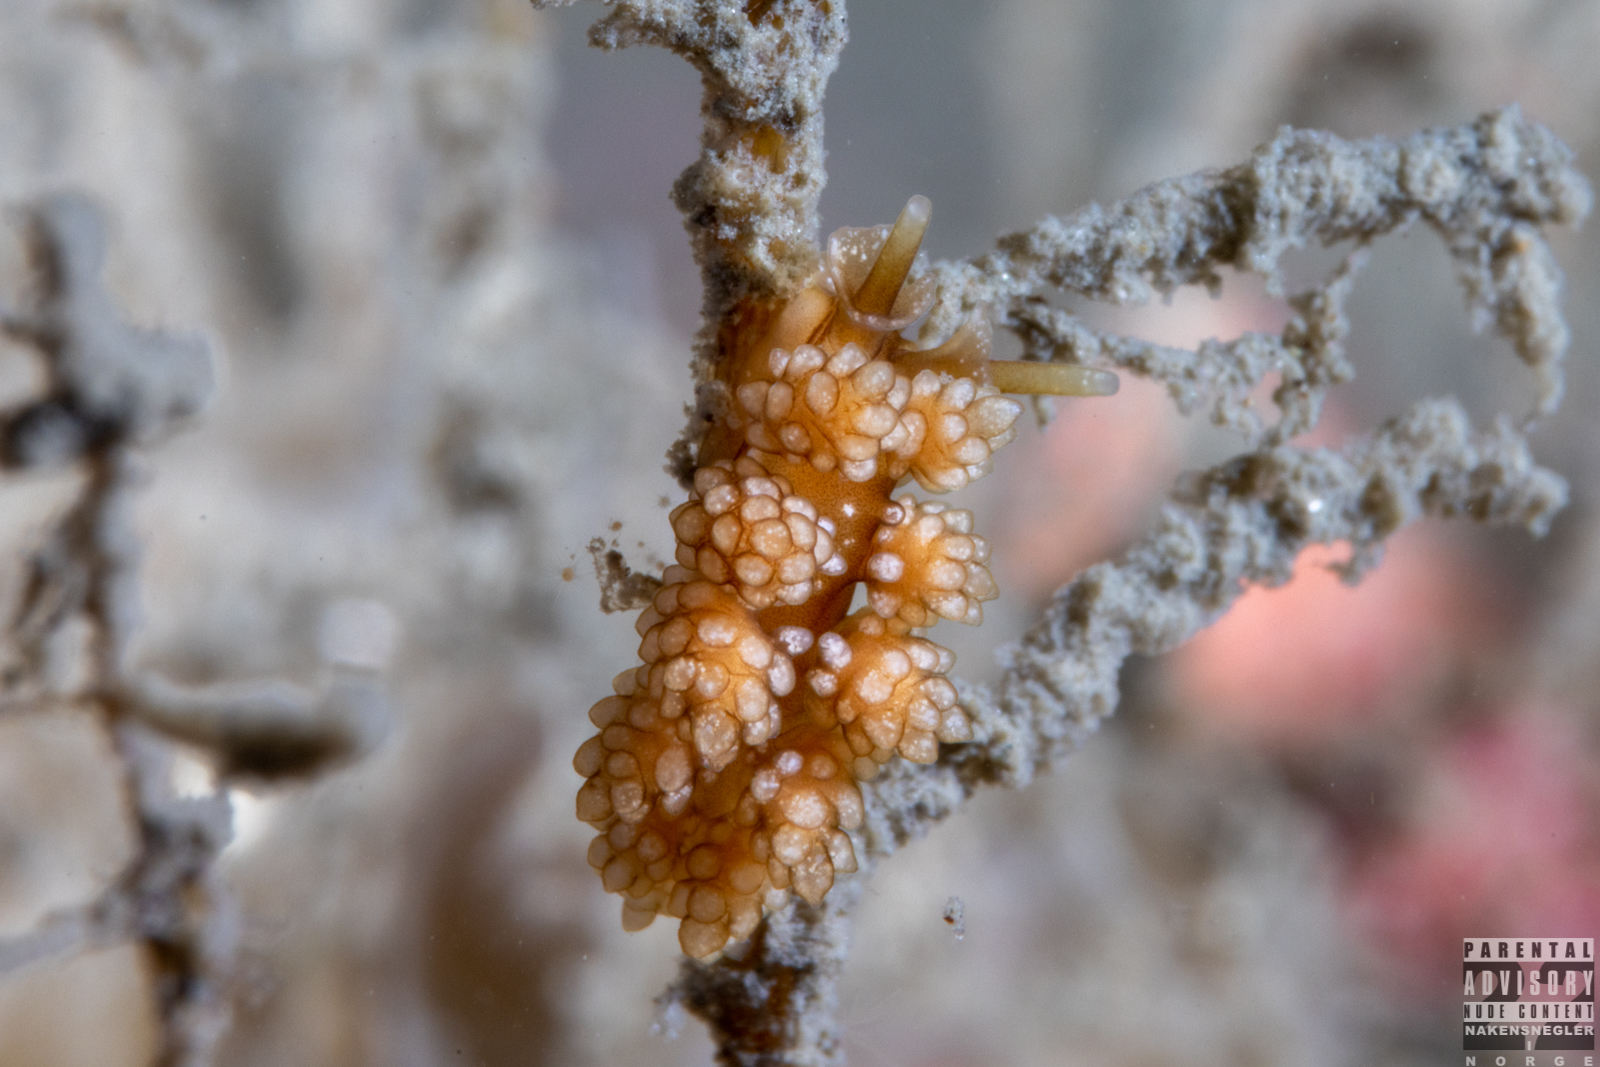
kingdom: Animalia
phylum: Mollusca
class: Gastropoda
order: Nudibranchia
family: Dotidae
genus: Doto
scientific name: Doto fragilis
